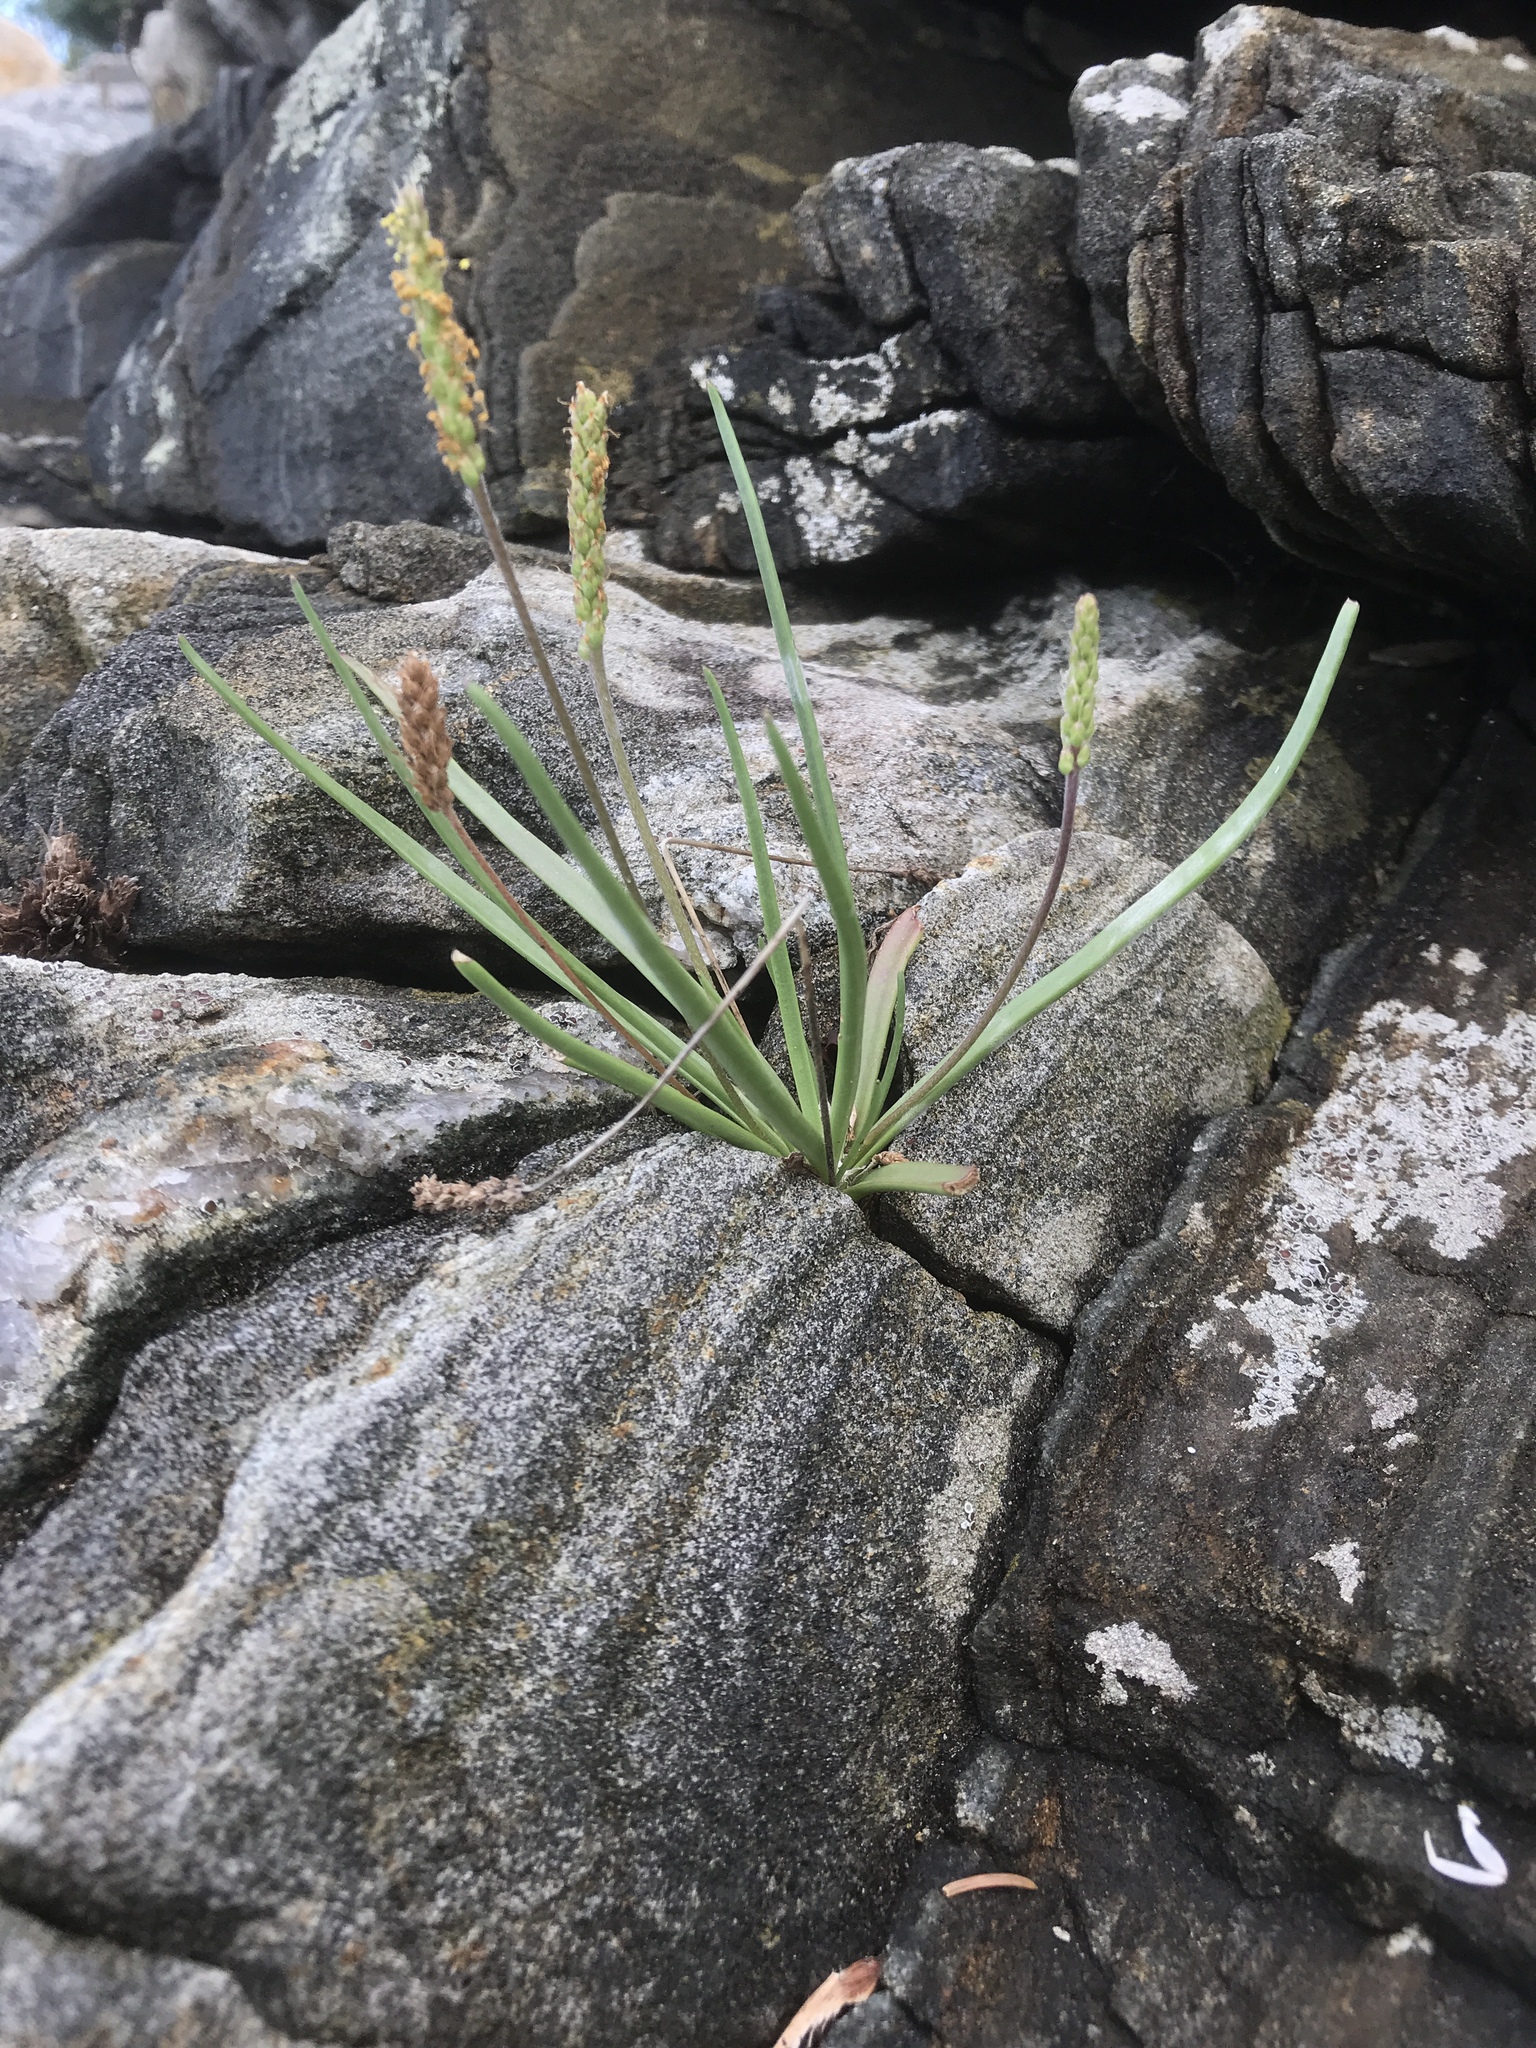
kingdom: Plantae
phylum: Tracheophyta
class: Magnoliopsida
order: Lamiales
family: Plantaginaceae
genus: Plantago
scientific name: Plantago maritima
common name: Sea plantain
